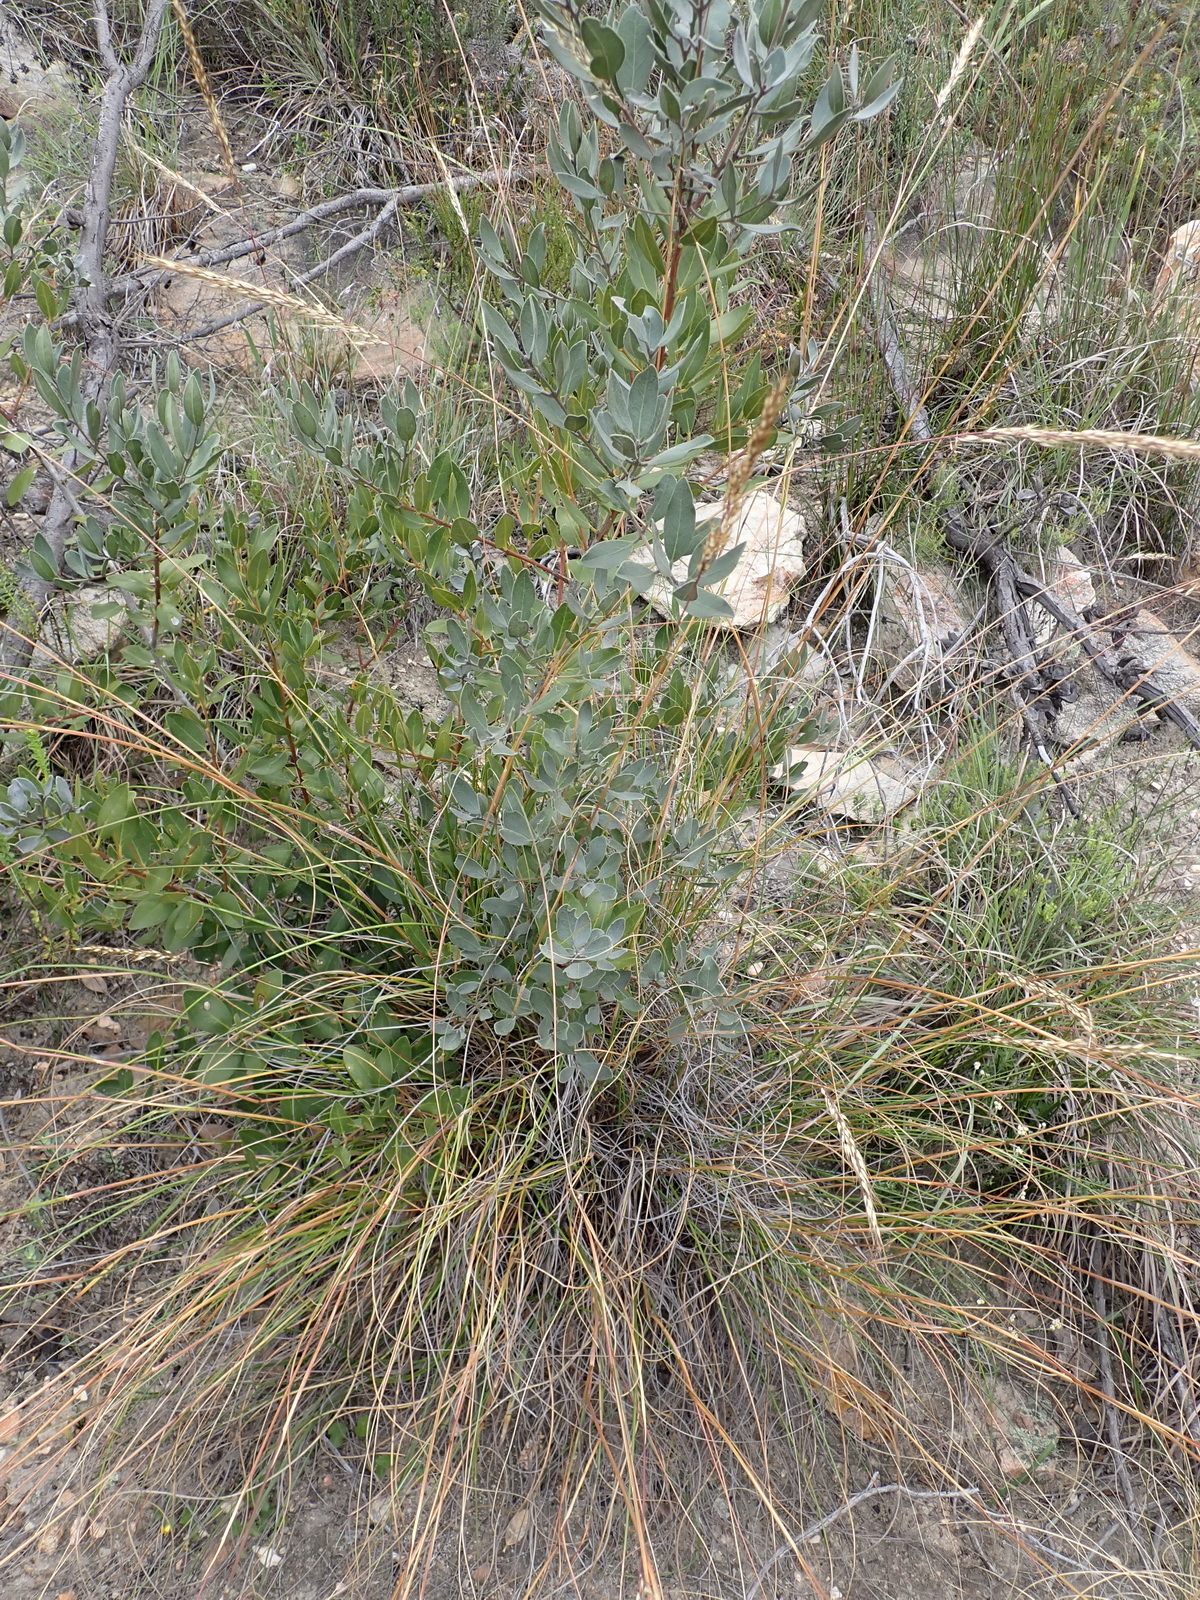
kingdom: Plantae
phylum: Tracheophyta
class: Magnoliopsida
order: Ericales
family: Ebenaceae
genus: Euclea
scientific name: Euclea polyandra
